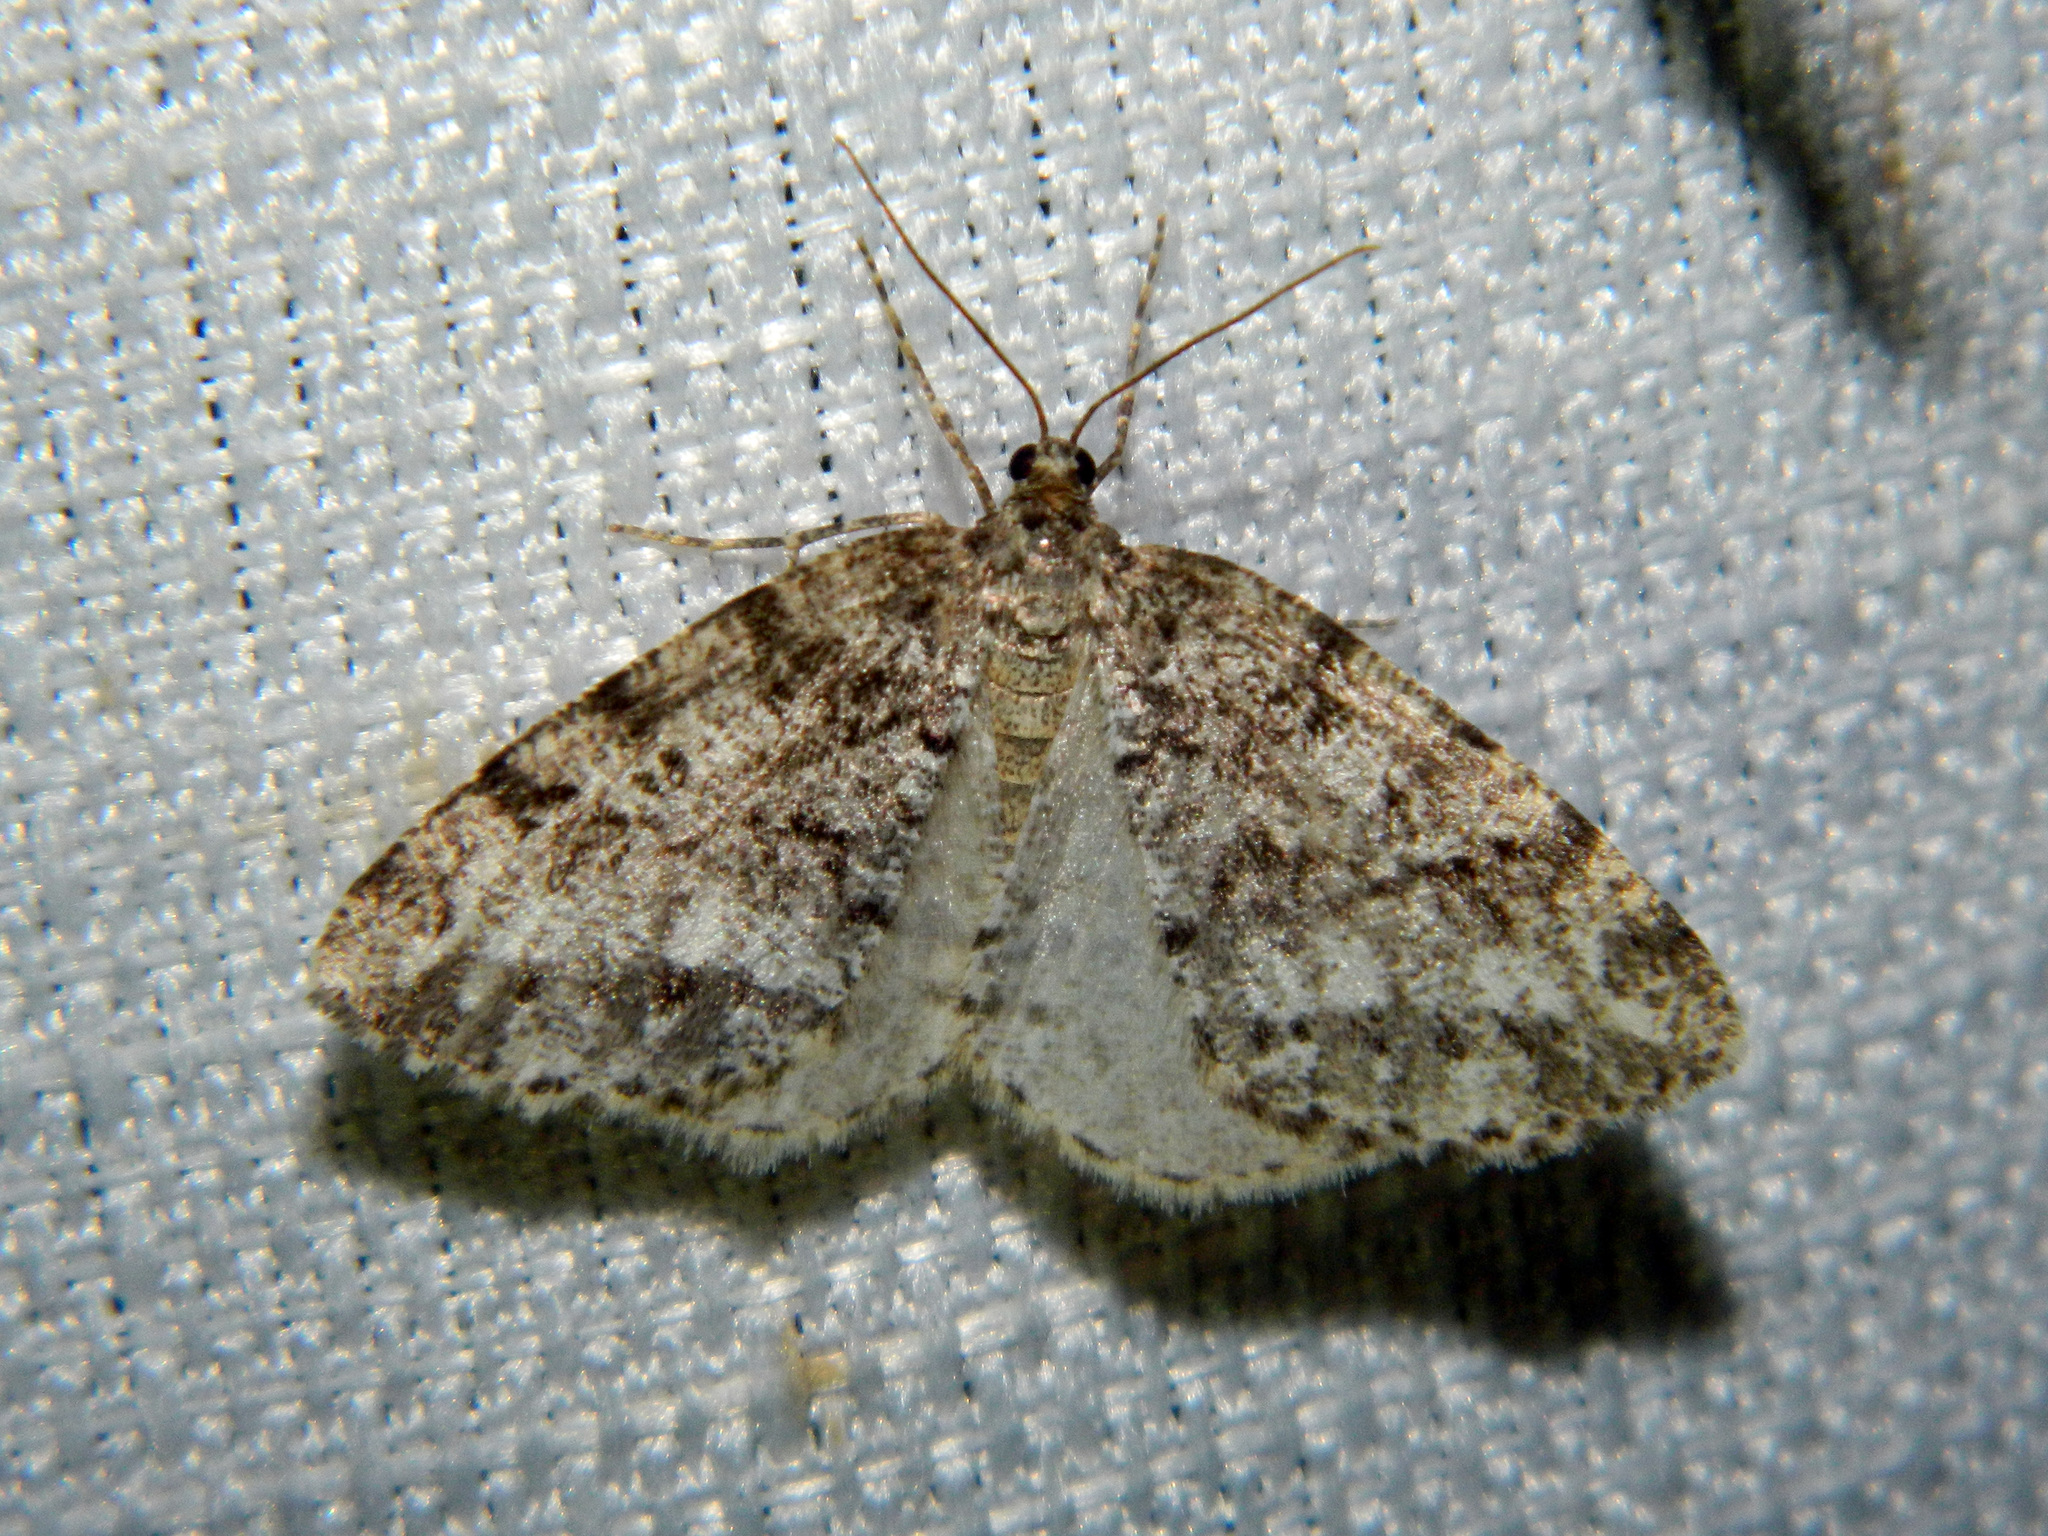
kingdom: Animalia
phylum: Arthropoda
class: Insecta
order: Lepidoptera
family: Geometridae
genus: Orthofidonia
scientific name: Orthofidonia exornata
